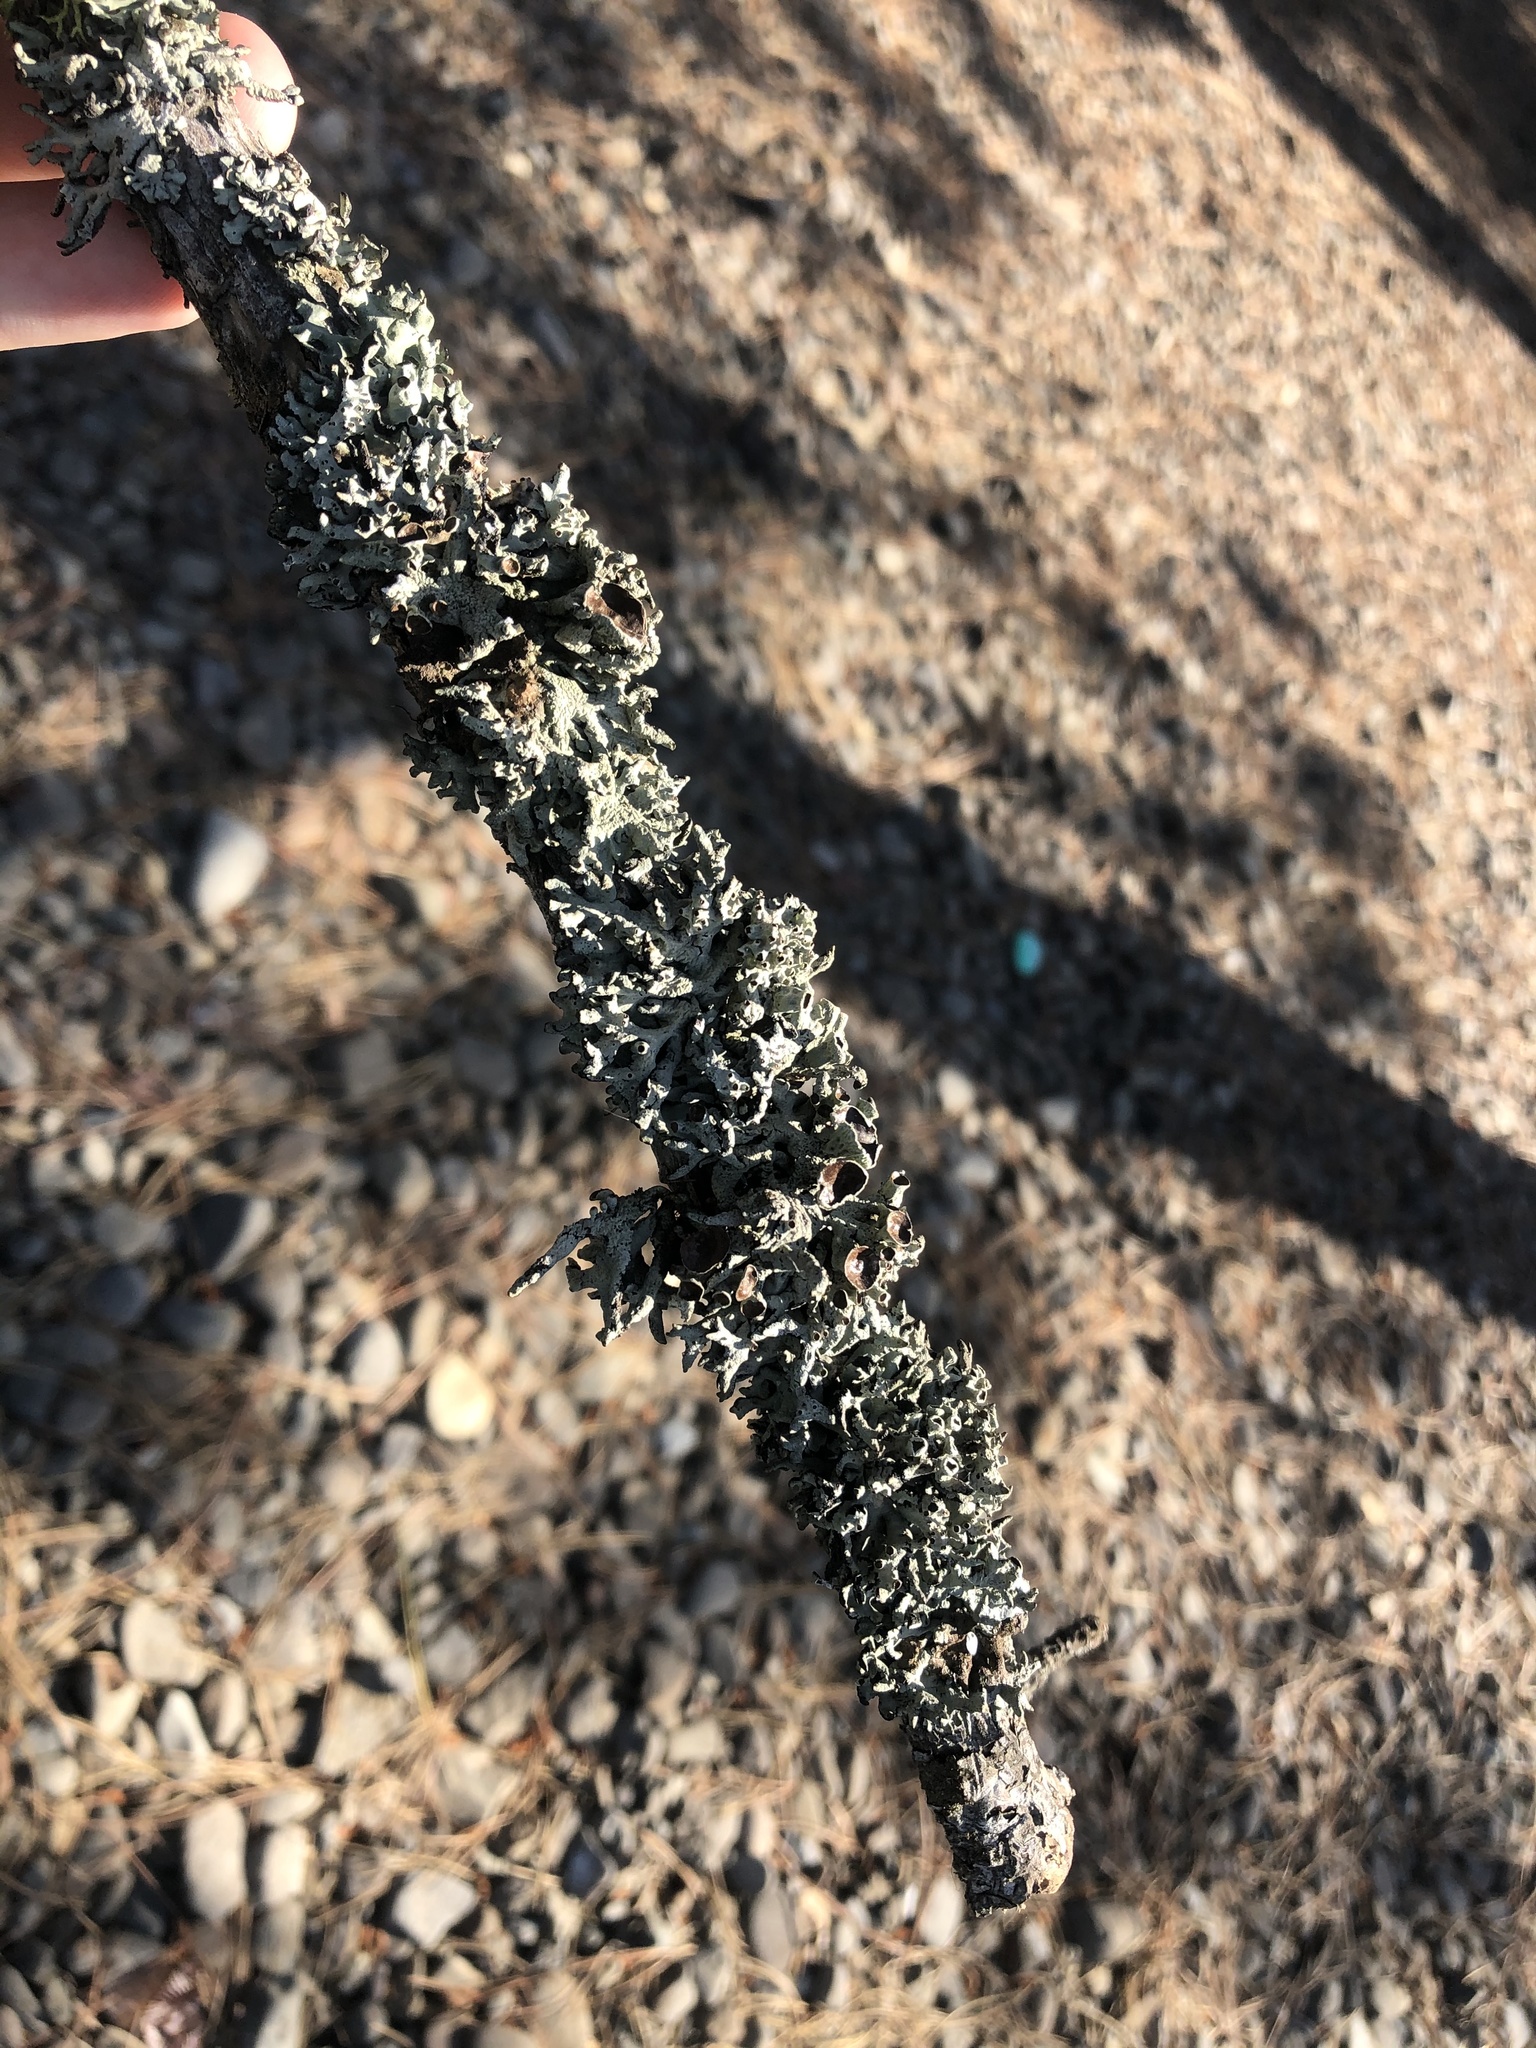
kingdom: Fungi
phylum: Ascomycota
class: Lecanoromycetes
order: Lecanorales
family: Parmeliaceae
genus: Hypogymnia
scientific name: Hypogymnia imshaugii
